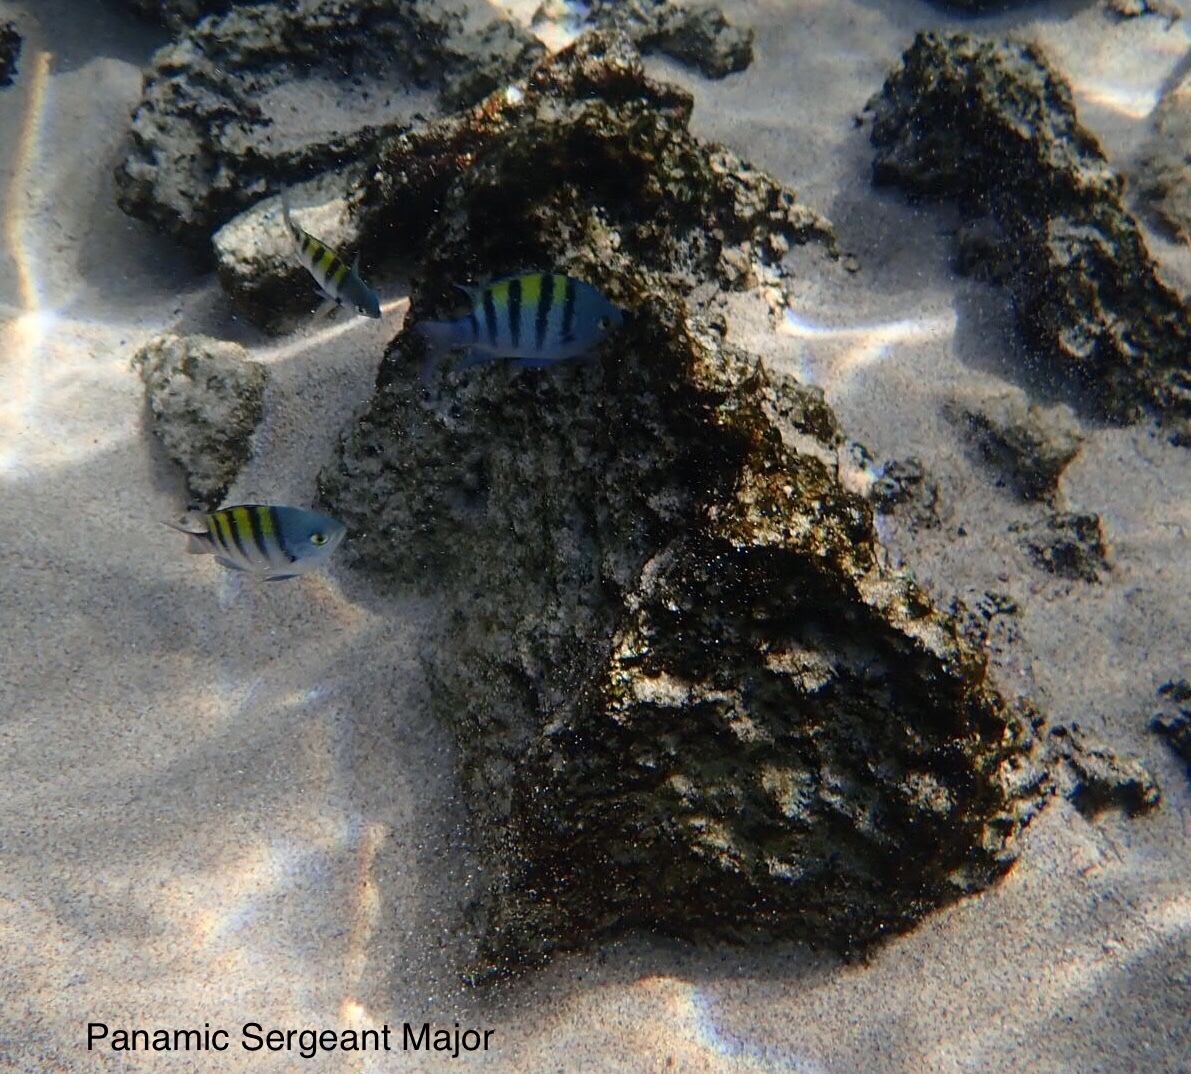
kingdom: Animalia
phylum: Chordata
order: Perciformes
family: Pomacentridae
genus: Abudefduf
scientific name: Abudefduf troschelii
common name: Panamic sergeant major
